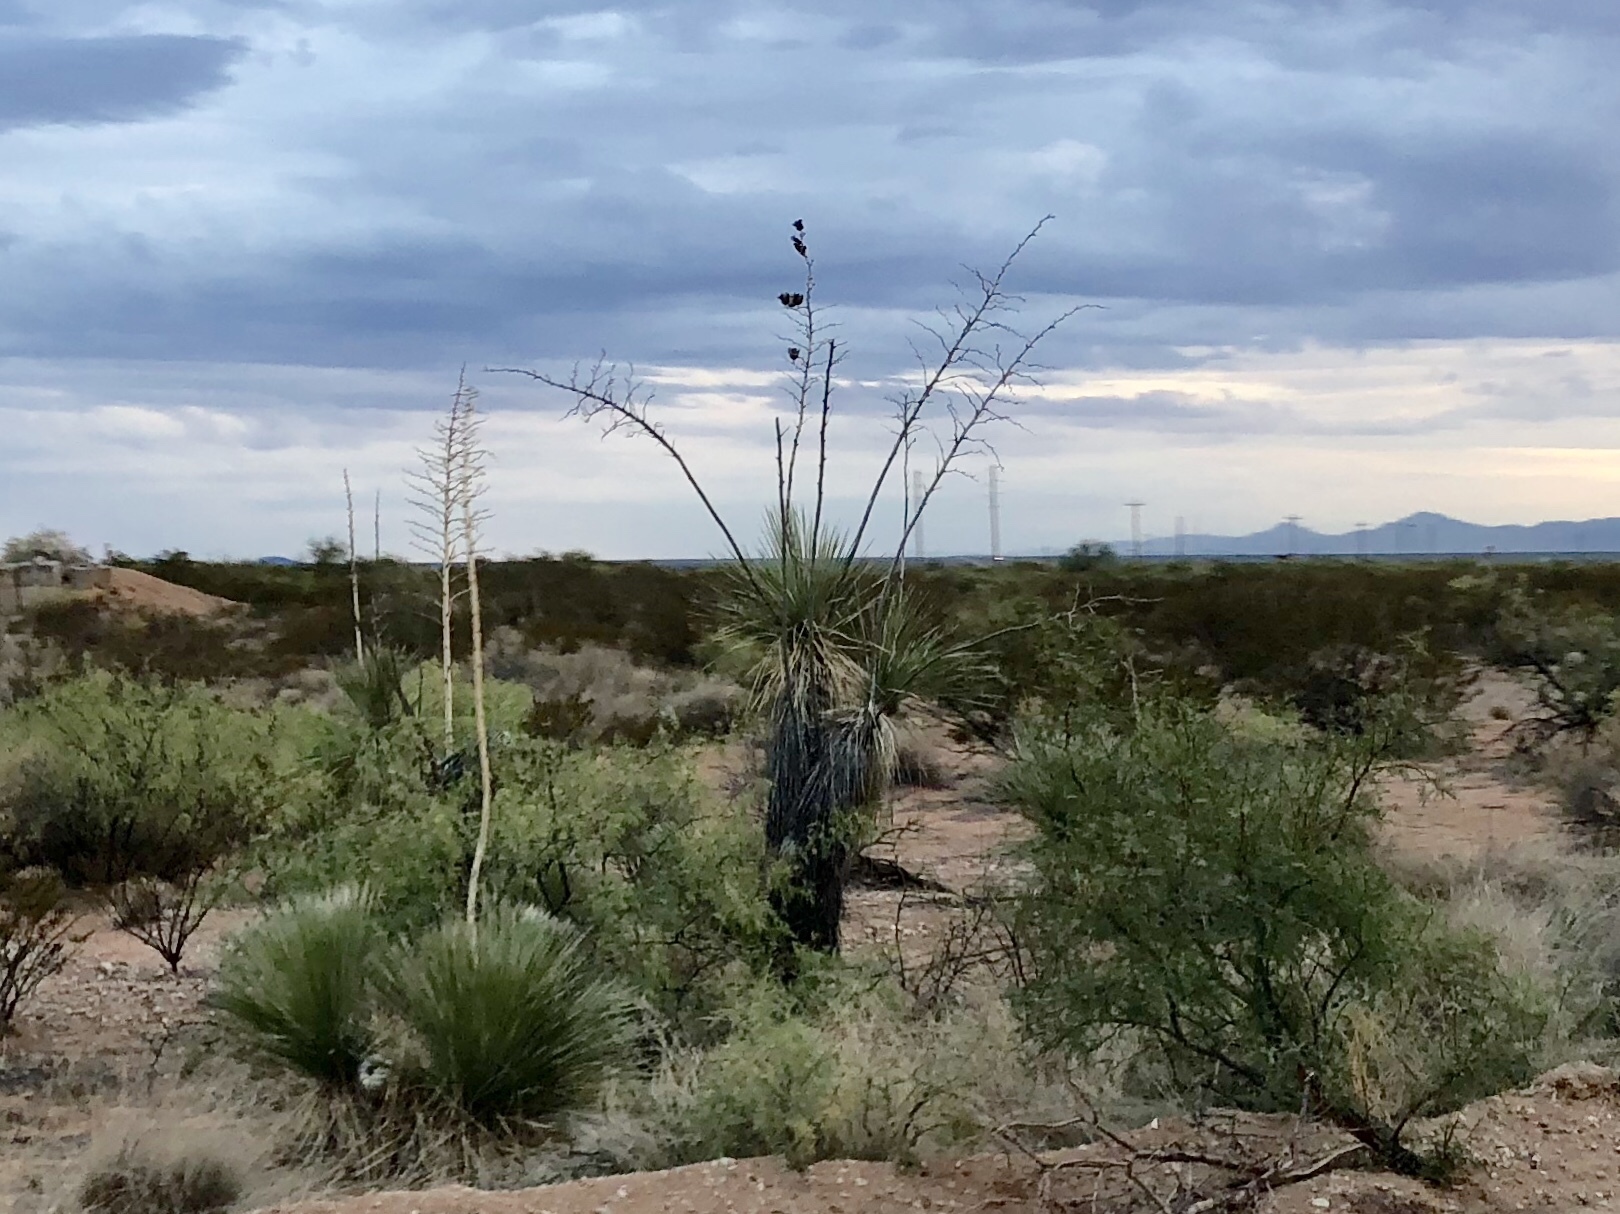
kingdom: Plantae
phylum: Tracheophyta
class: Liliopsida
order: Asparagales
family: Asparagaceae
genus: Yucca
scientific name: Yucca elata
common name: Palmella
